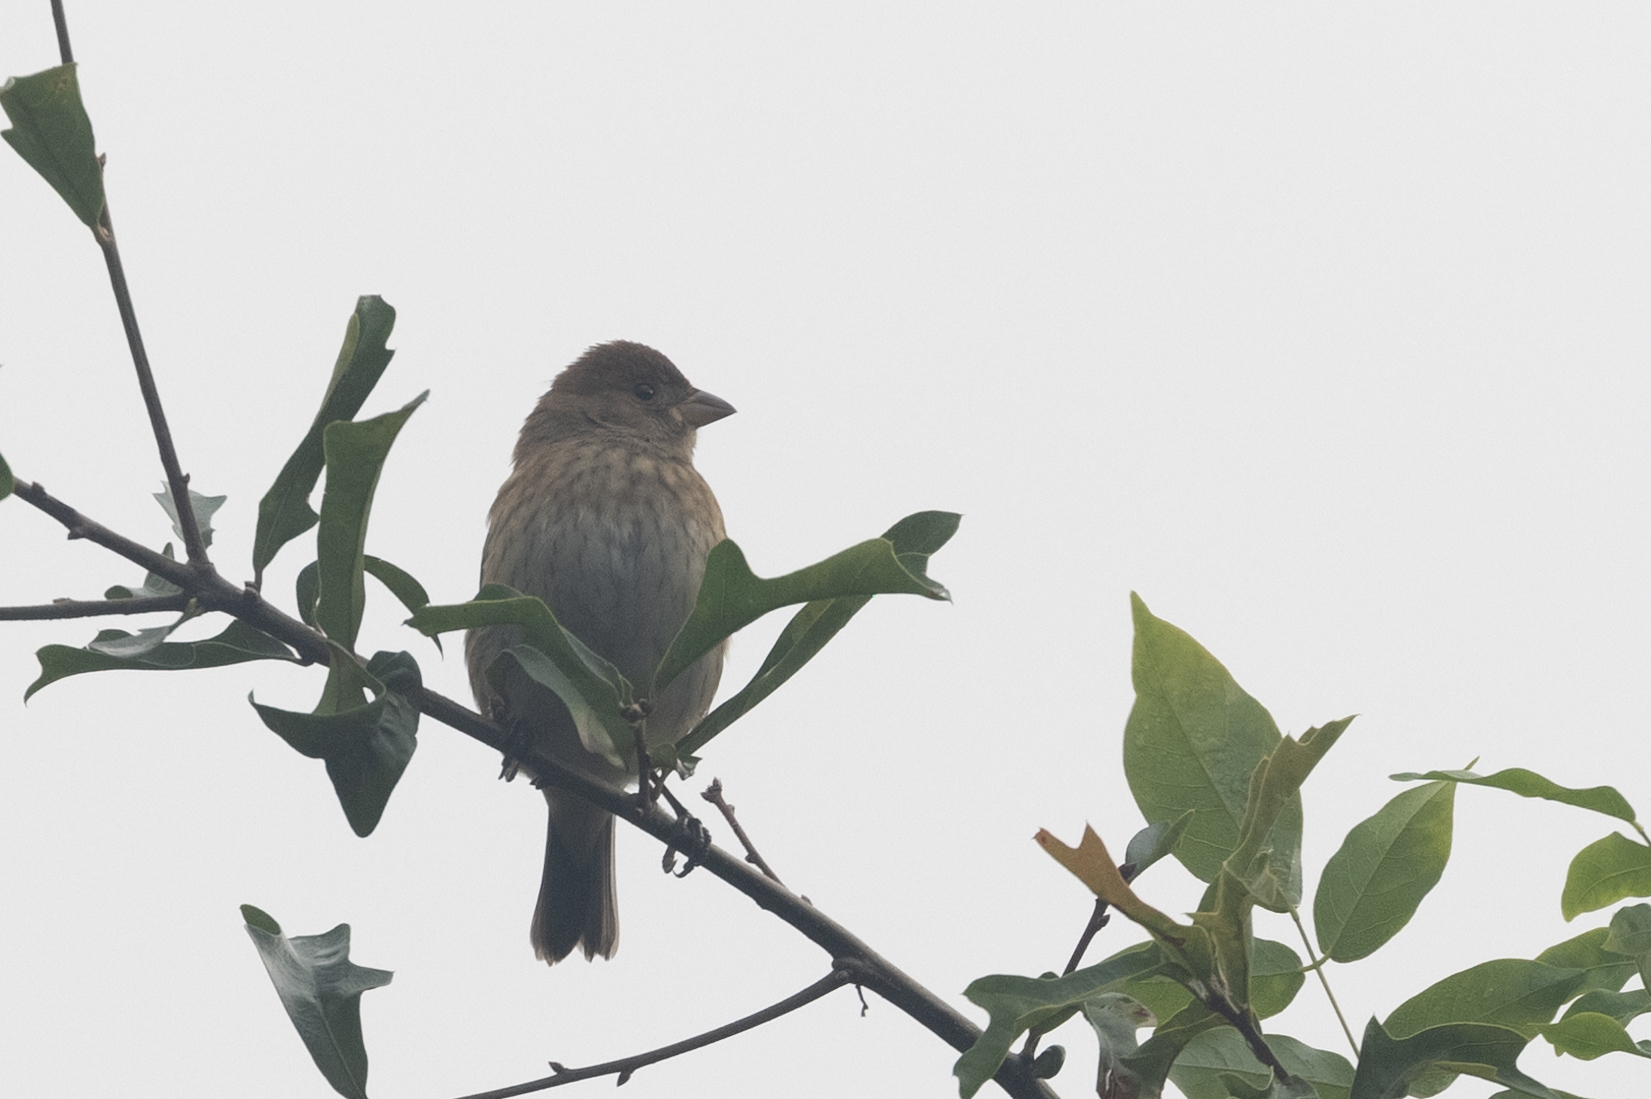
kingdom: Animalia
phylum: Chordata
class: Aves
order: Passeriformes
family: Cardinalidae
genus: Passerina
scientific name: Passerina cyanea
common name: Indigo bunting
